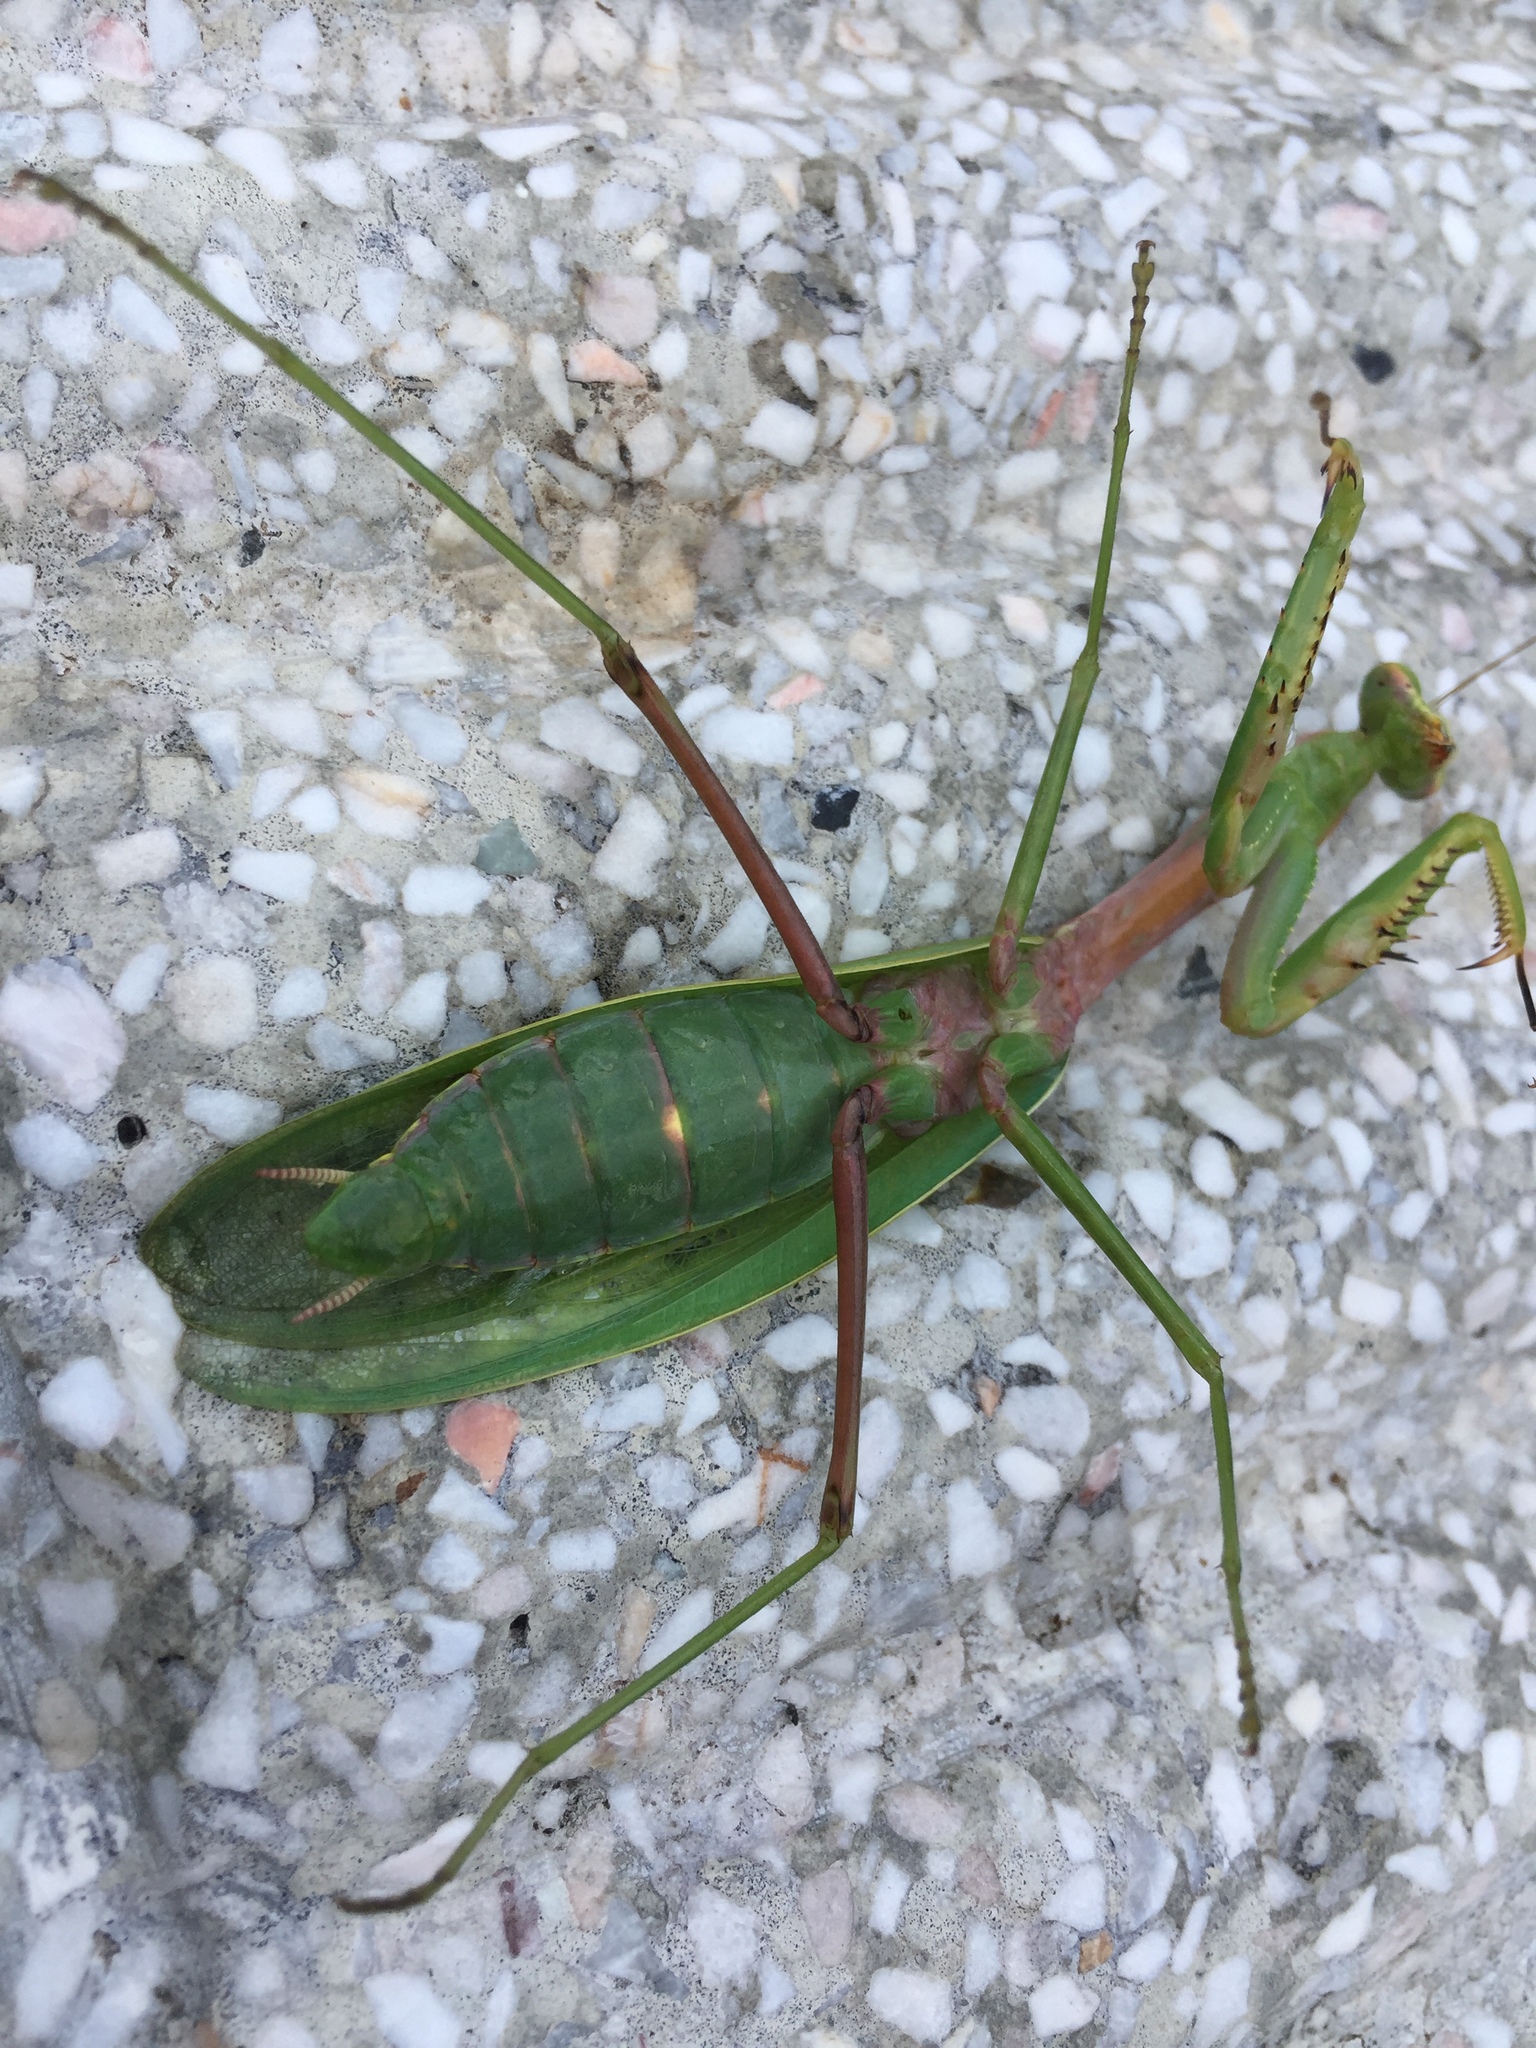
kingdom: Animalia
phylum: Arthropoda
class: Insecta
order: Mantodea
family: Mantidae
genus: Hierodula
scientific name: Hierodula chinensis
